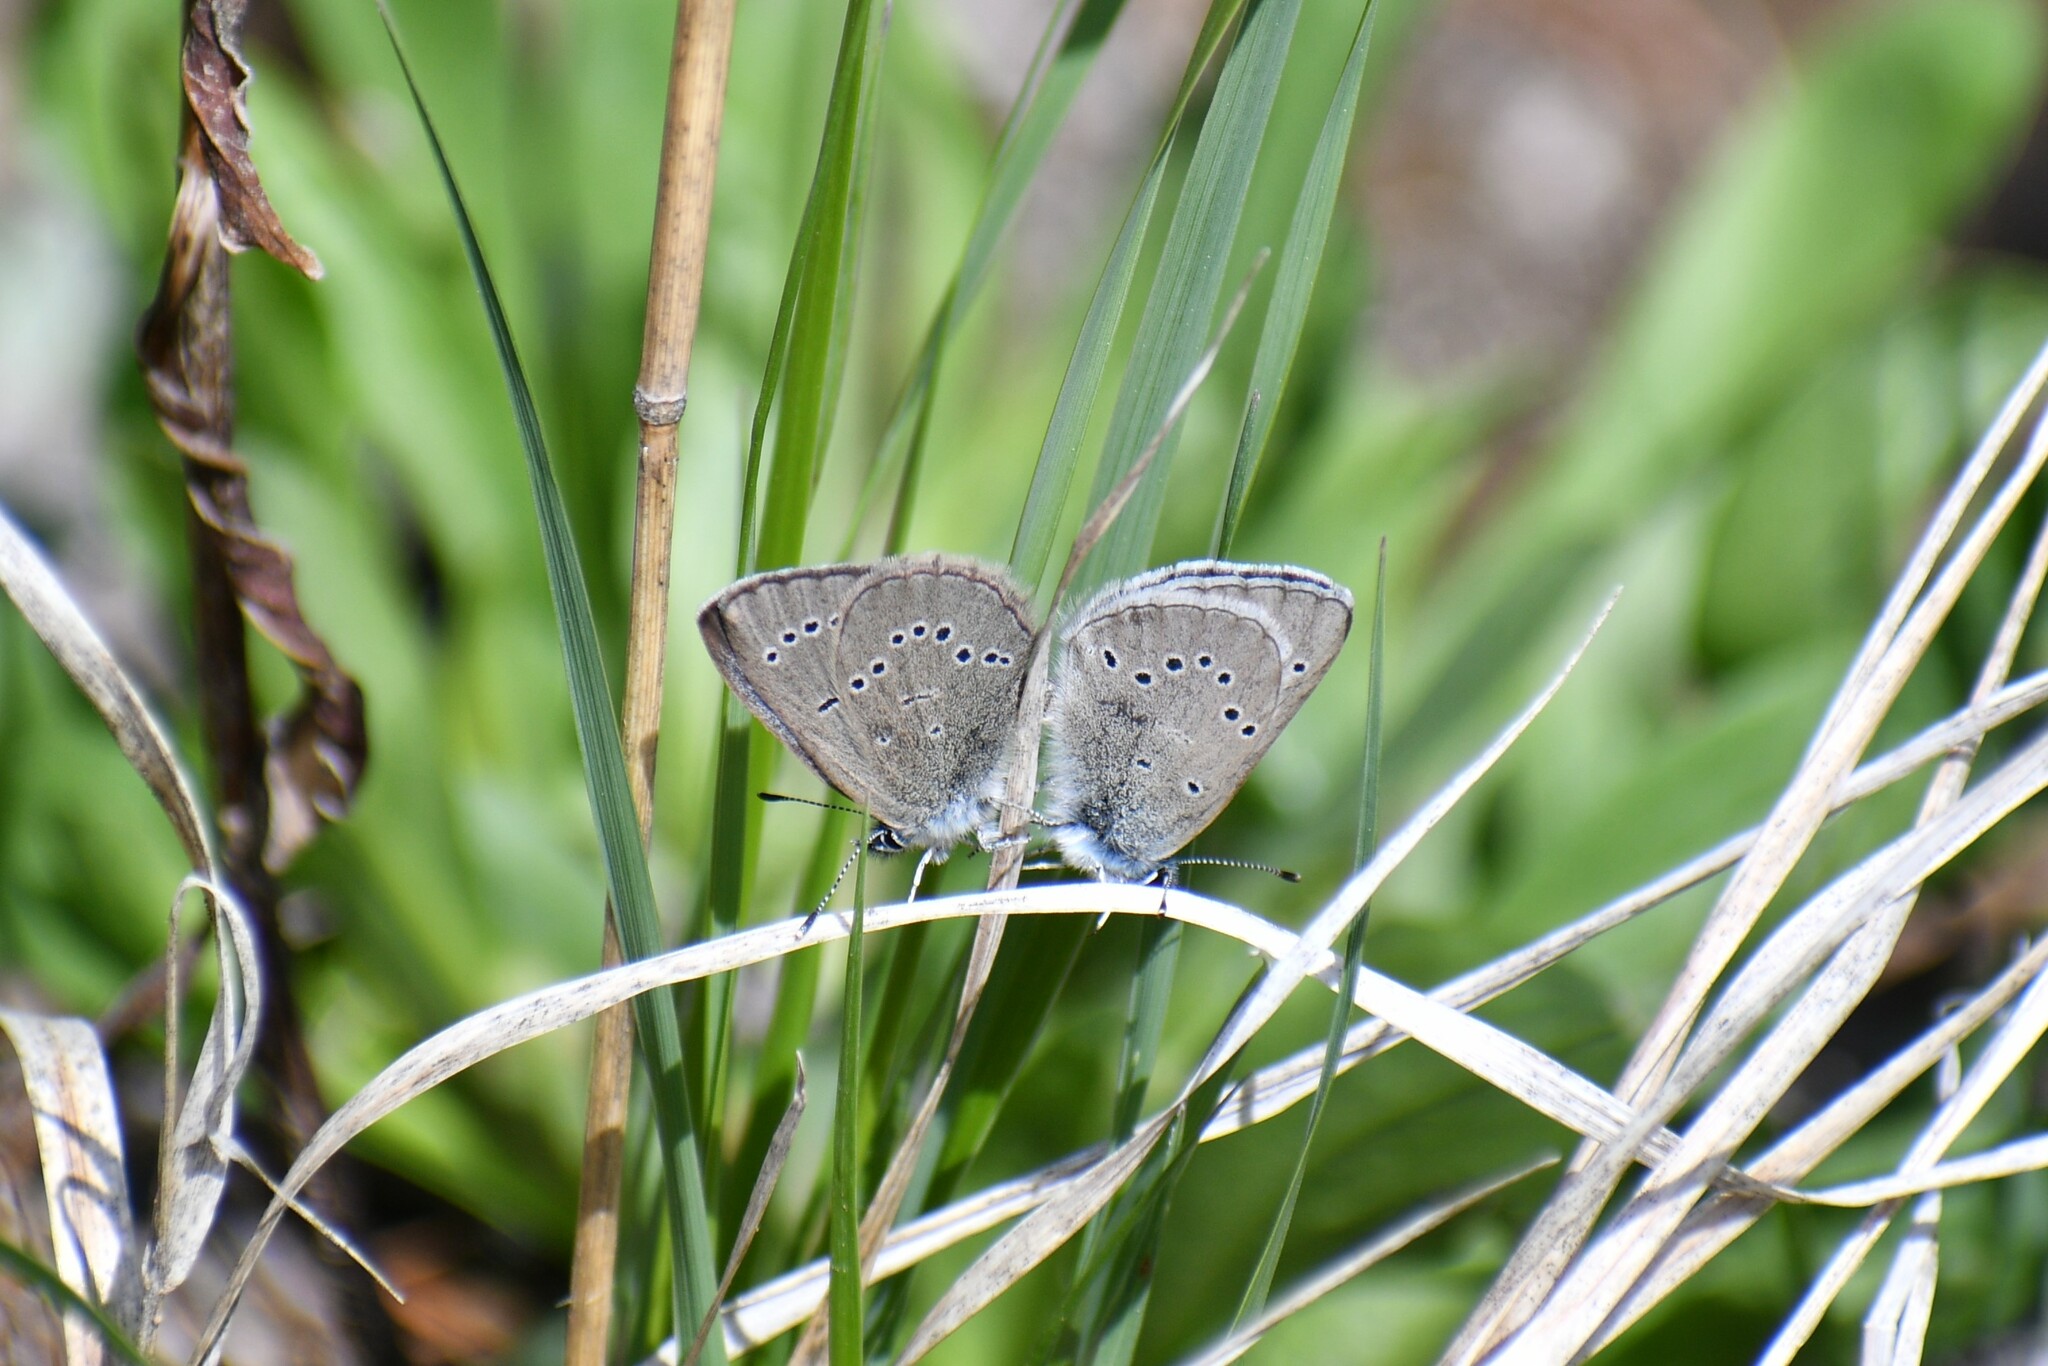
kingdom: Animalia
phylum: Arthropoda
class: Insecta
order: Lepidoptera
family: Lycaenidae
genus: Glaucopsyche
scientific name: Glaucopsyche lygdamus
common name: Silvery blue
